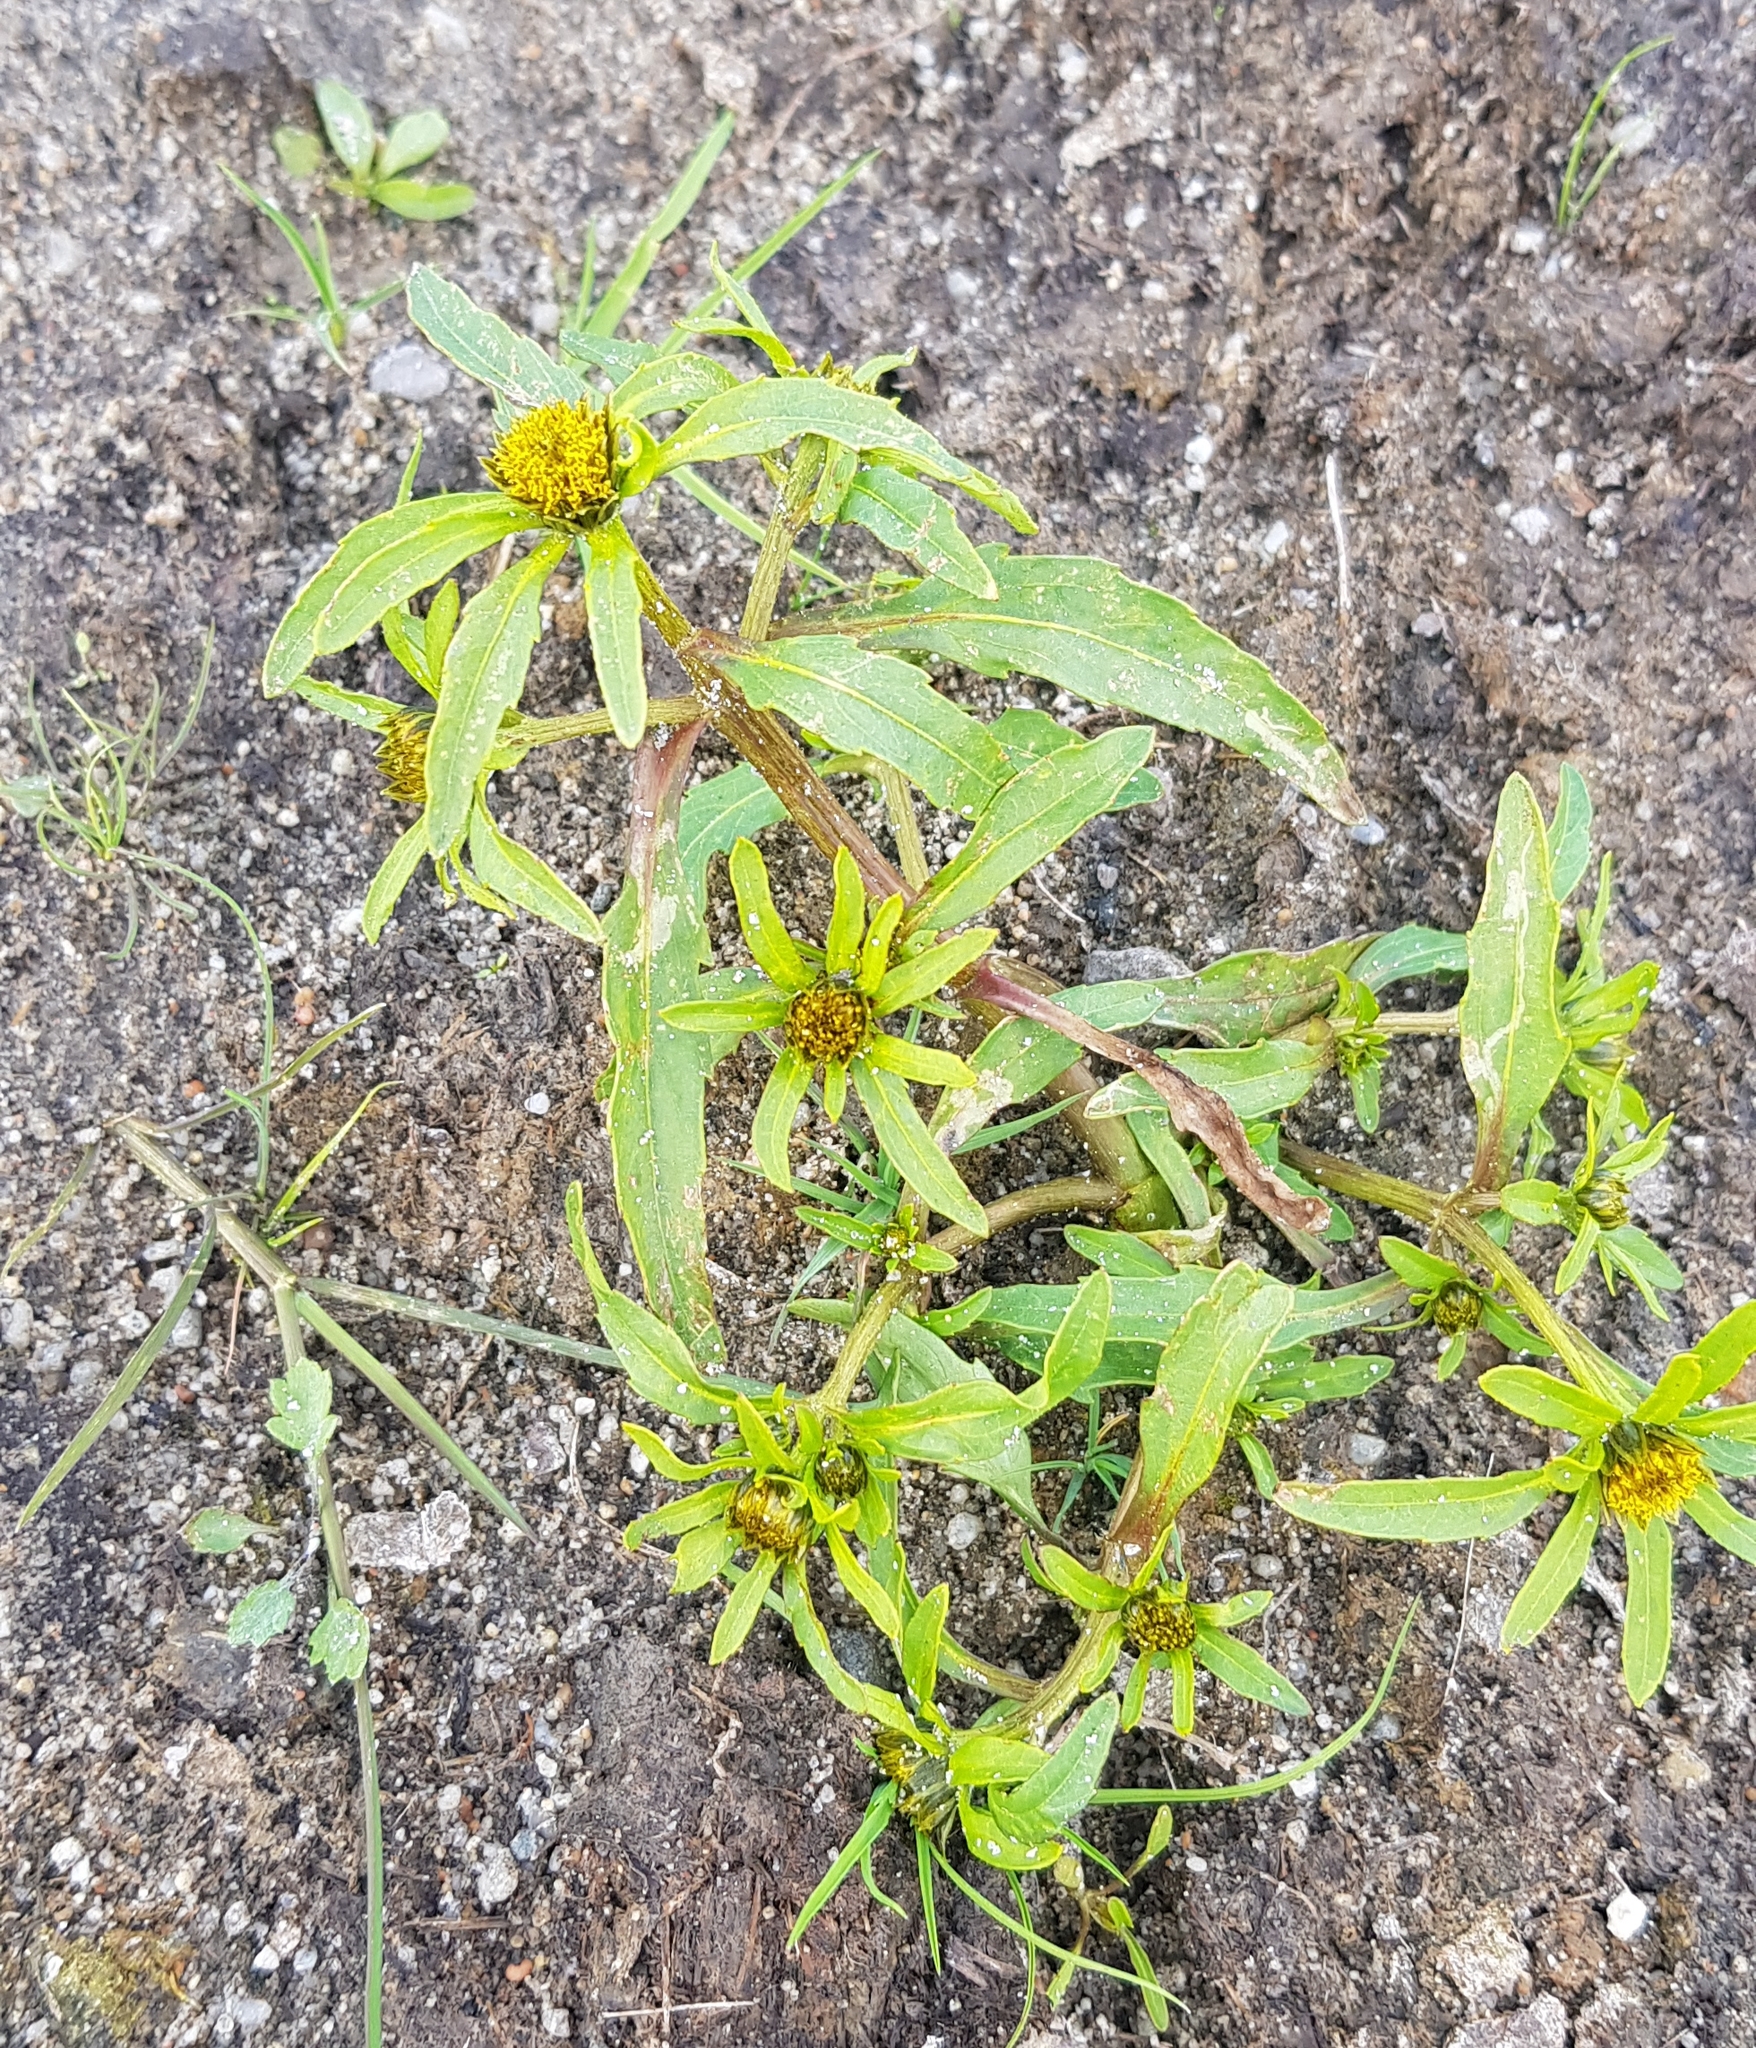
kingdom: Plantae
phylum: Tracheophyta
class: Magnoliopsida
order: Asterales
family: Asteraceae
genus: Bidens
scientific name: Bidens tripartita
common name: Trifid bur-marigold
